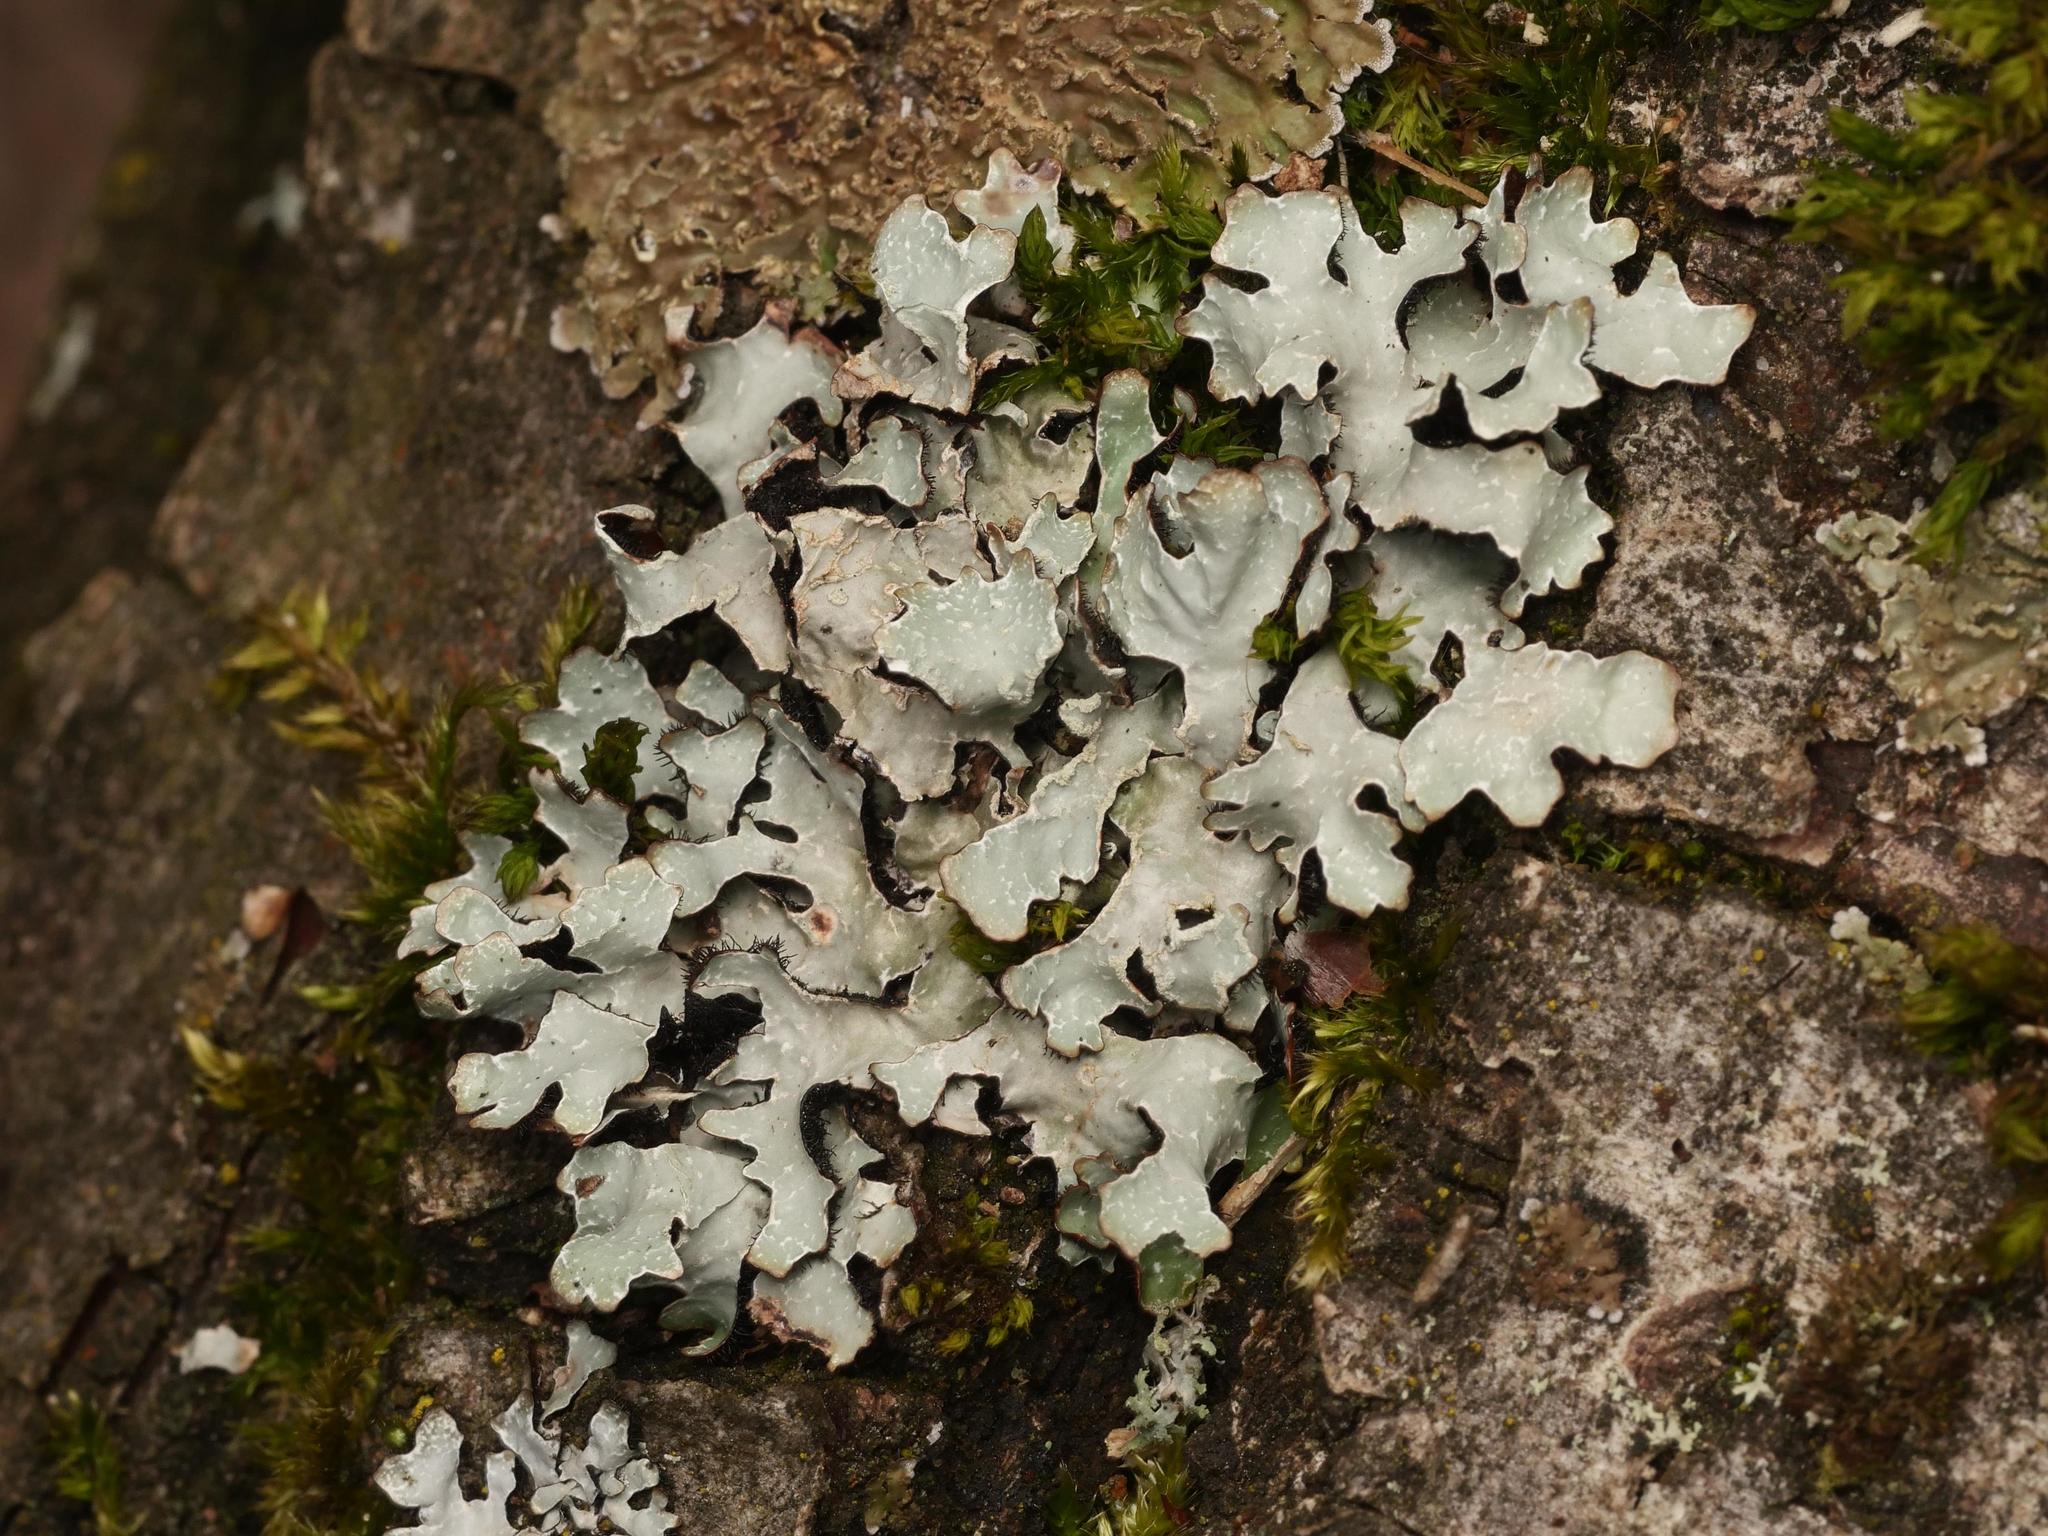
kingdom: Fungi
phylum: Ascomycota
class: Lecanoromycetes
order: Lecanorales
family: Parmeliaceae
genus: Parmelia
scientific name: Parmelia sulcata
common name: Netted shield lichen
